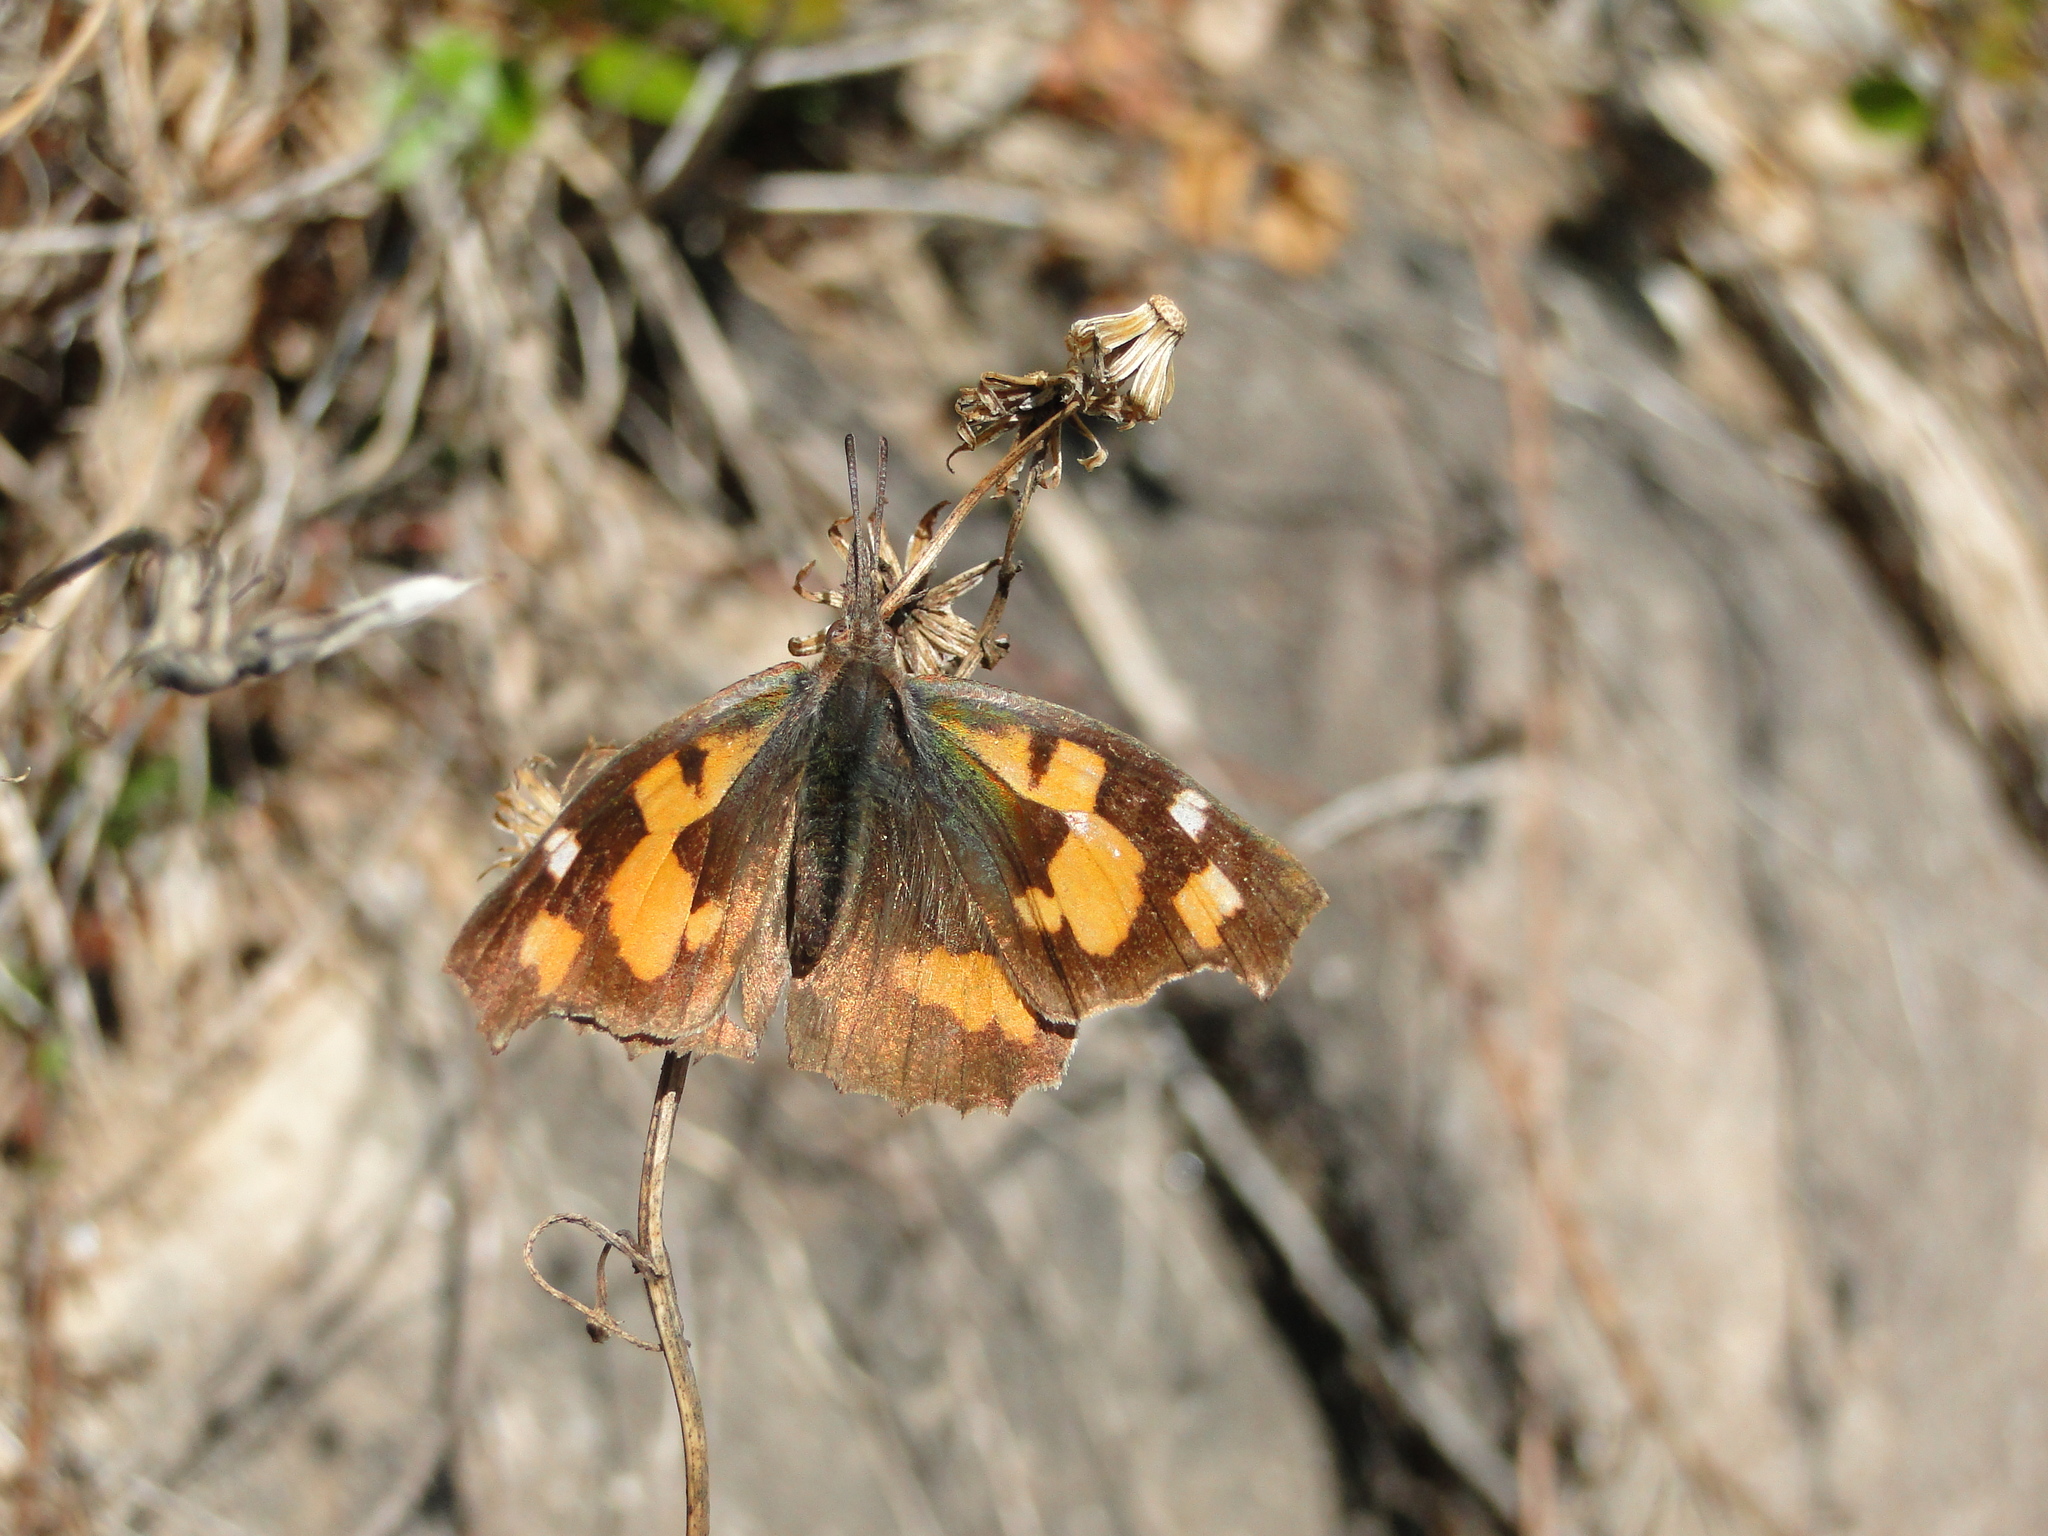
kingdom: Animalia
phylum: Arthropoda
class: Insecta
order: Lepidoptera
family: Nymphalidae
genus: Libythea
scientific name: Libythea celtis
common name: Nettle-tree butterfly
